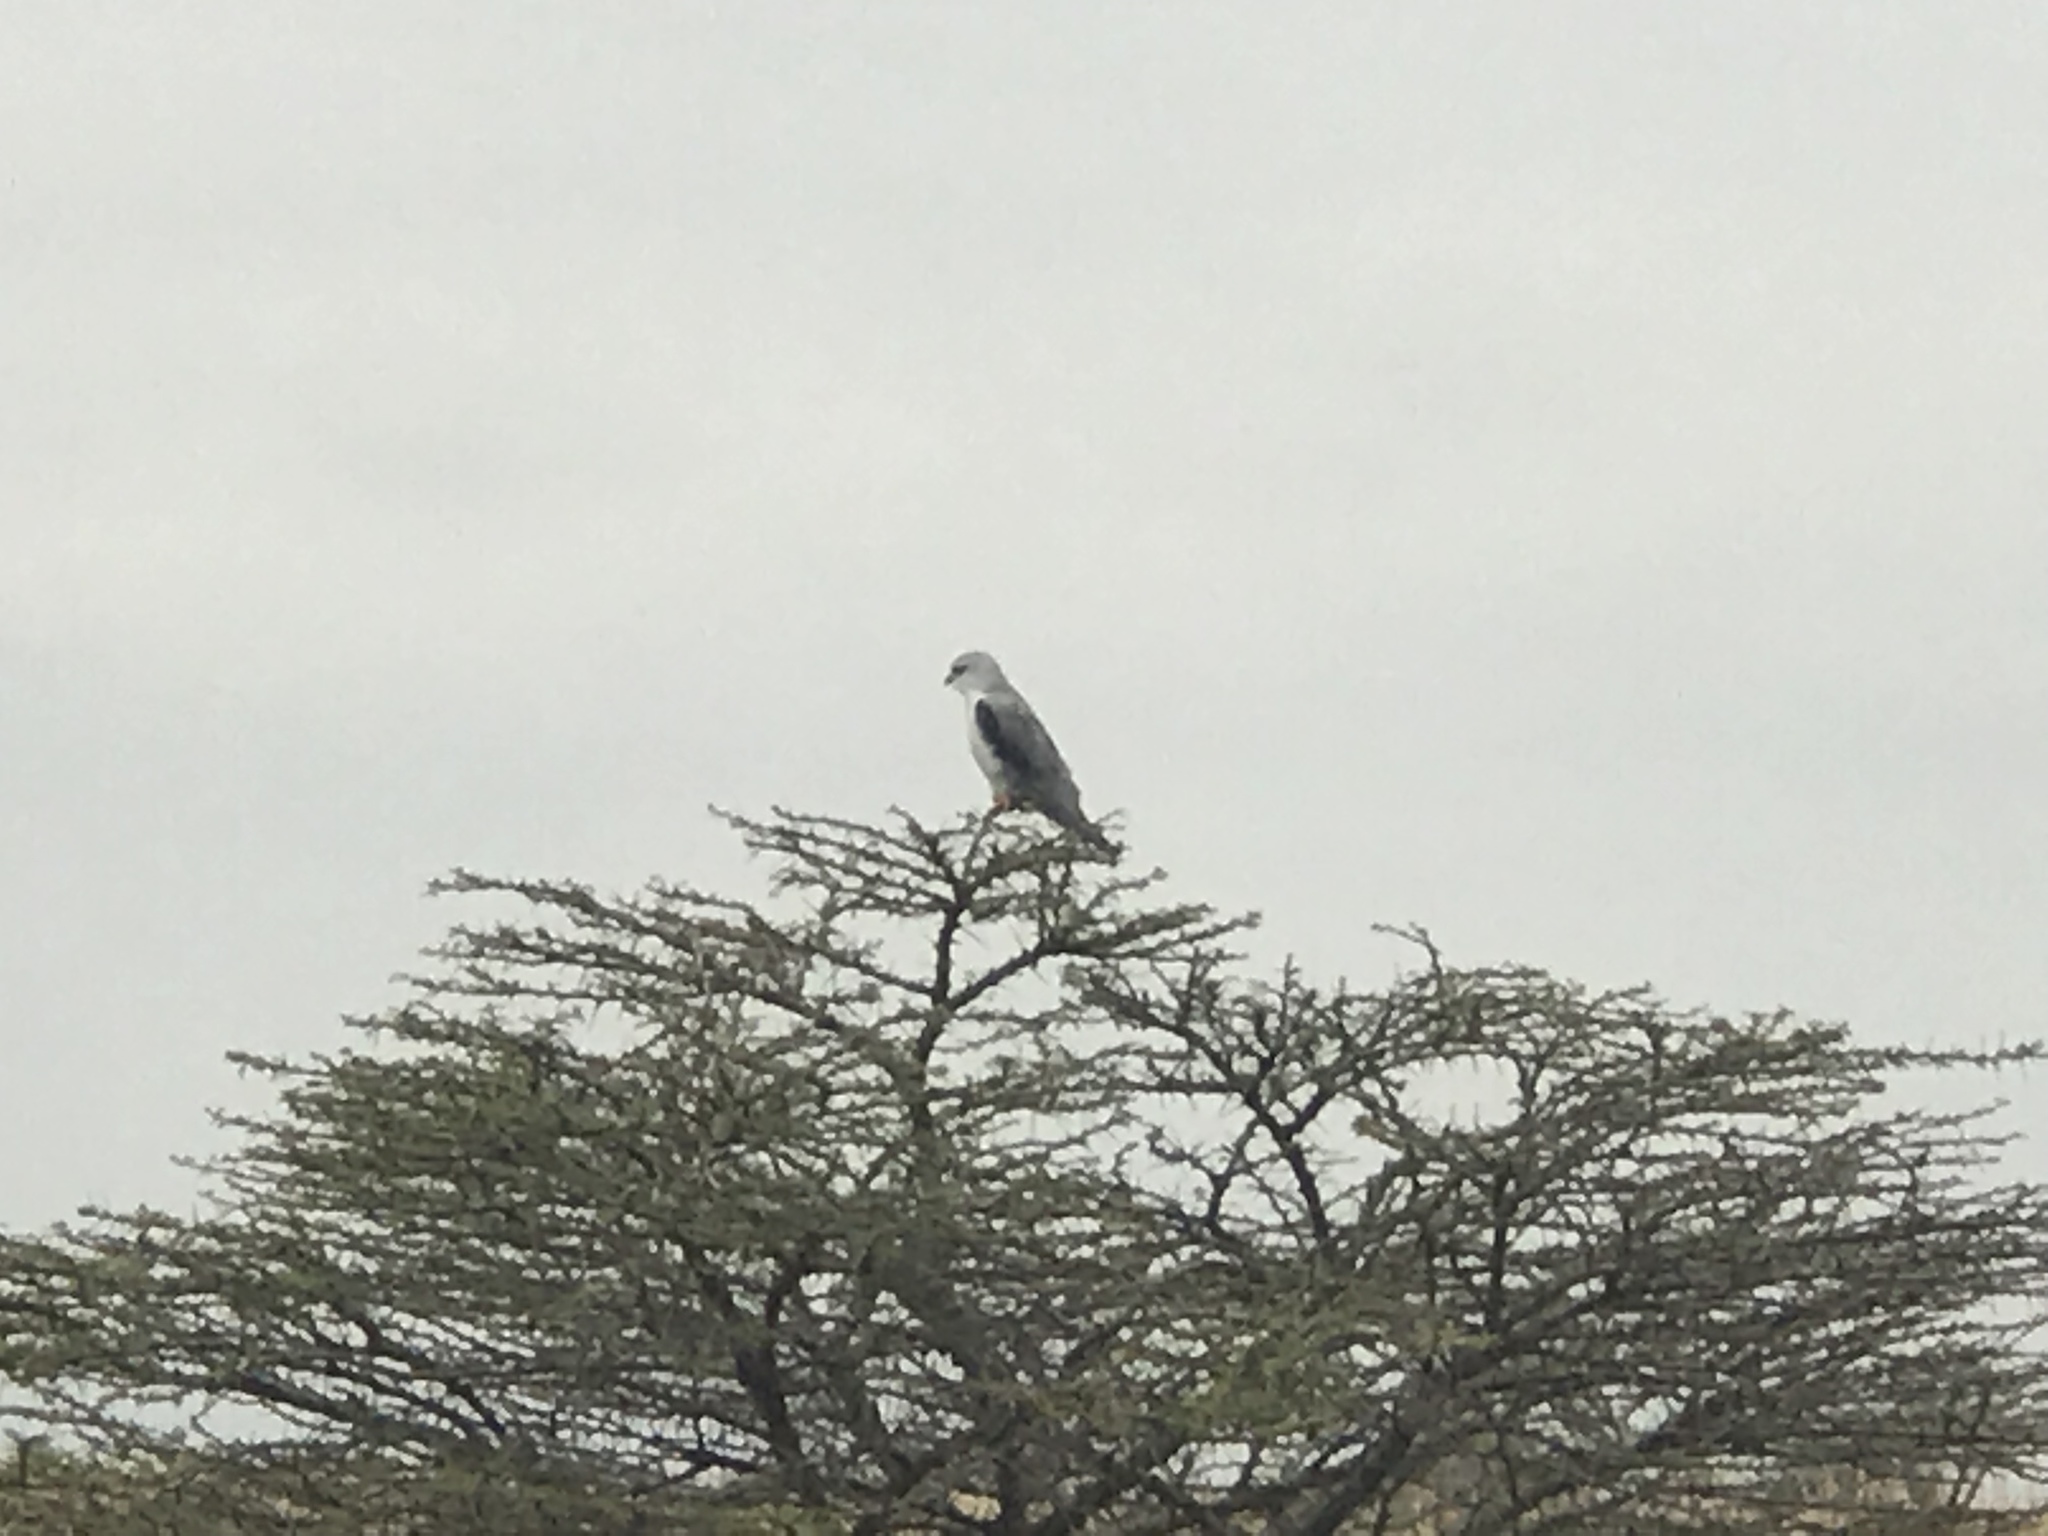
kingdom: Animalia
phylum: Chordata
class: Aves
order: Accipitriformes
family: Accipitridae
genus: Elanus
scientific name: Elanus caeruleus
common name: Black-winged kite
